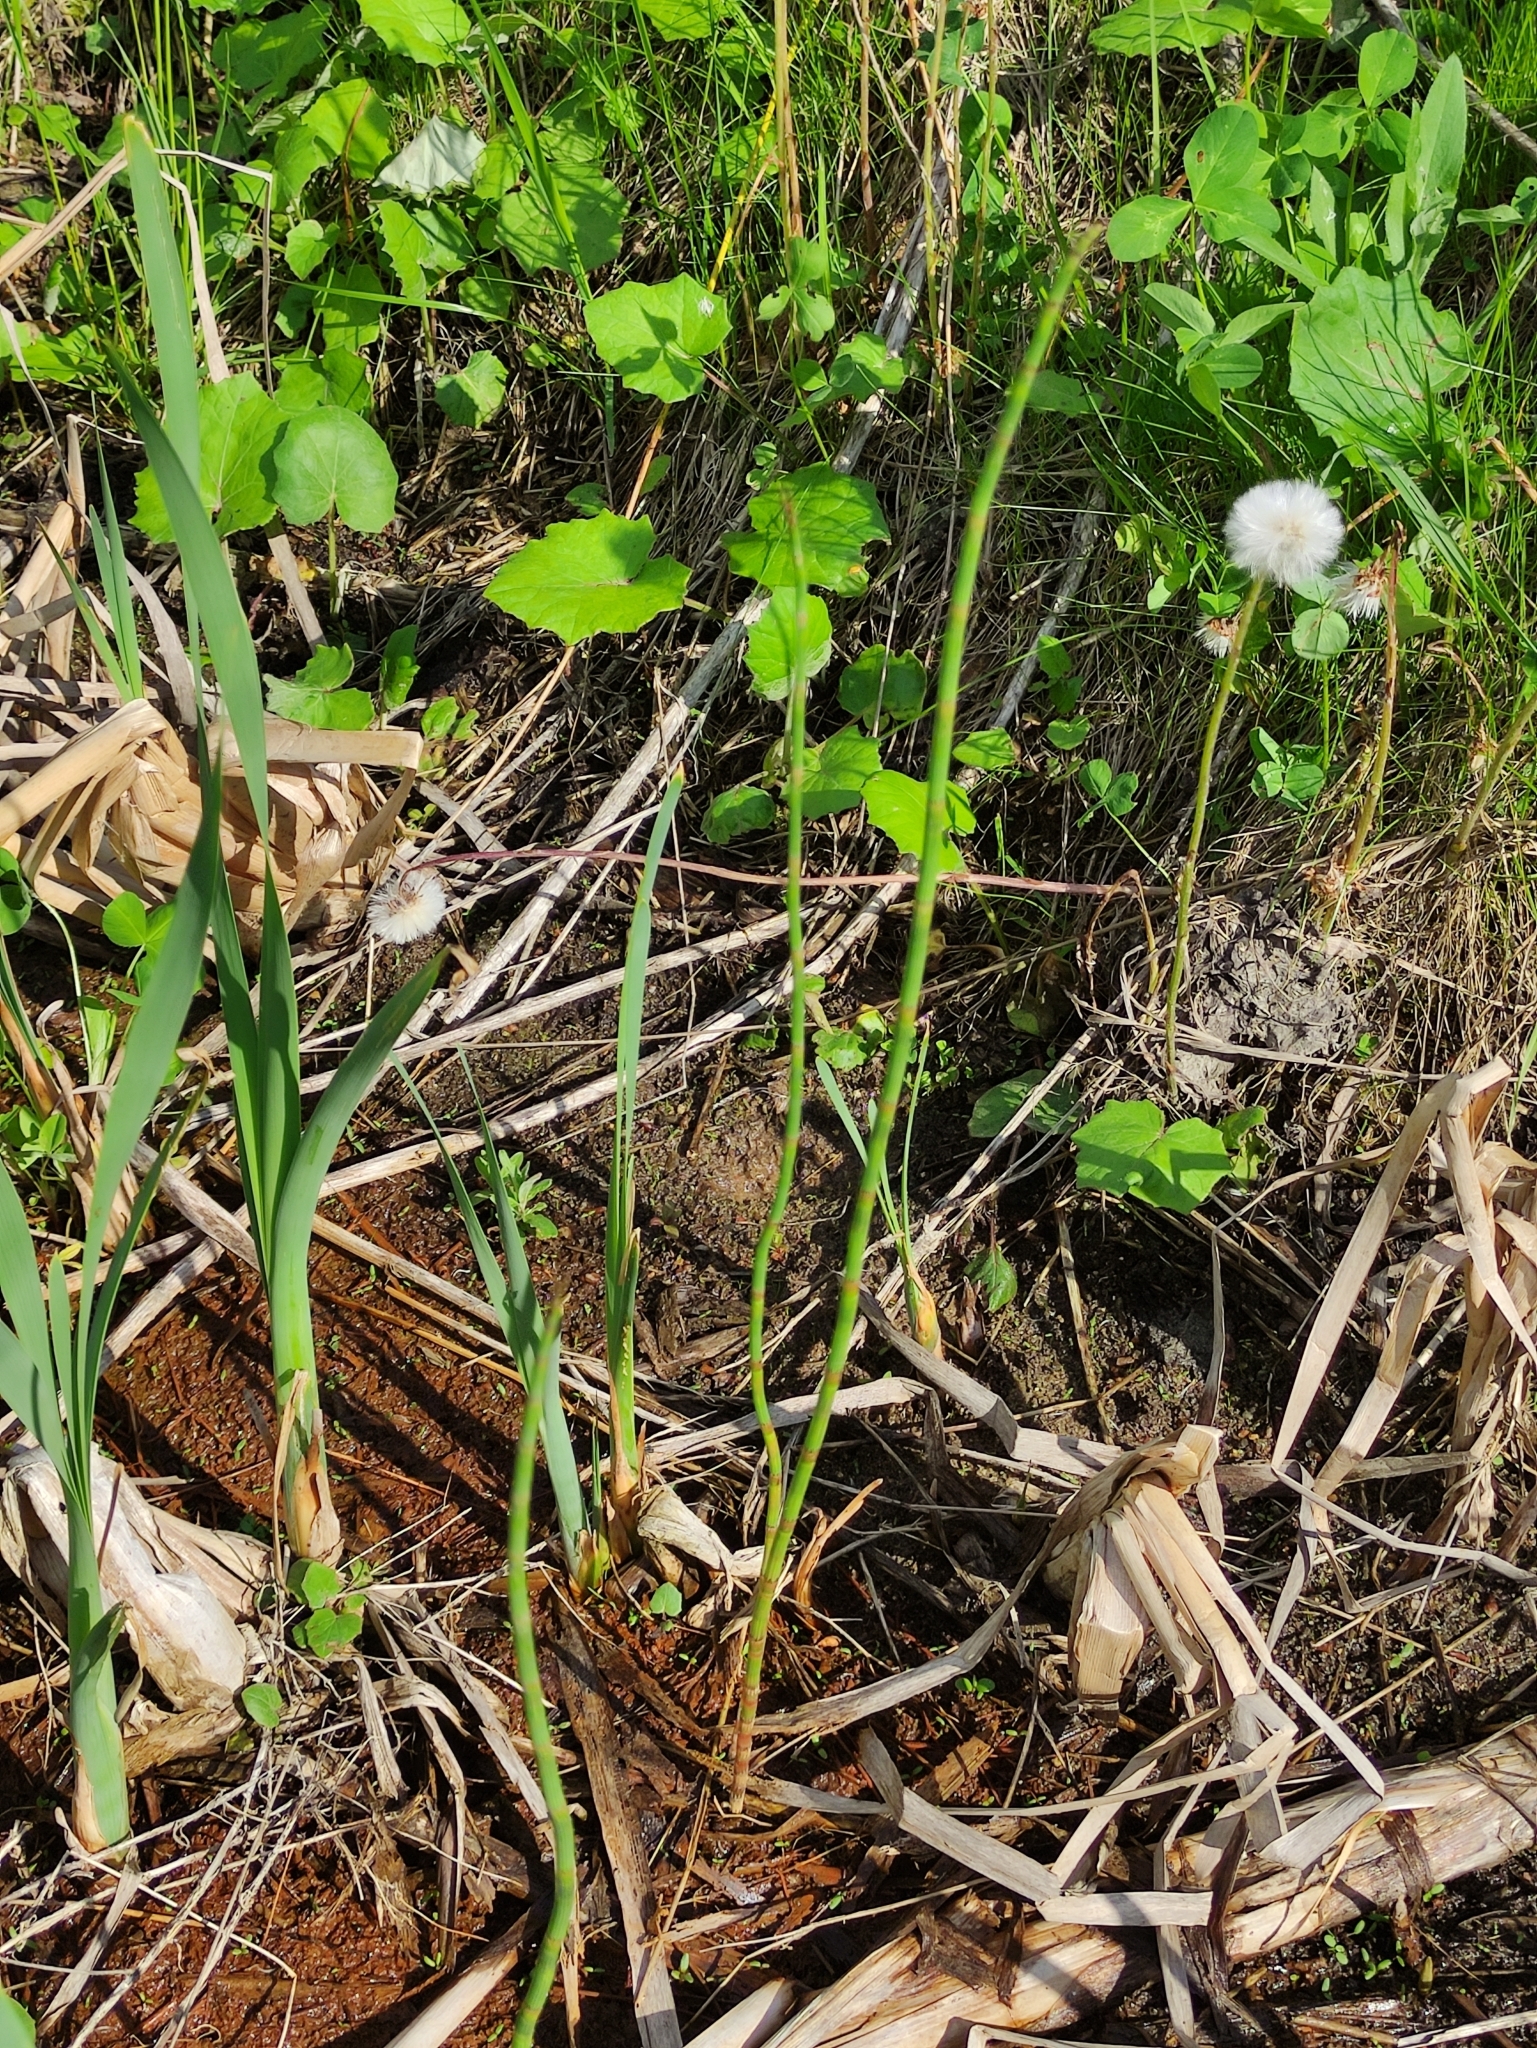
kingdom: Plantae
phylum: Tracheophyta
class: Polypodiopsida
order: Equisetales
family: Equisetaceae
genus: Equisetum
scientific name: Equisetum fluviatile
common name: Water horsetail
